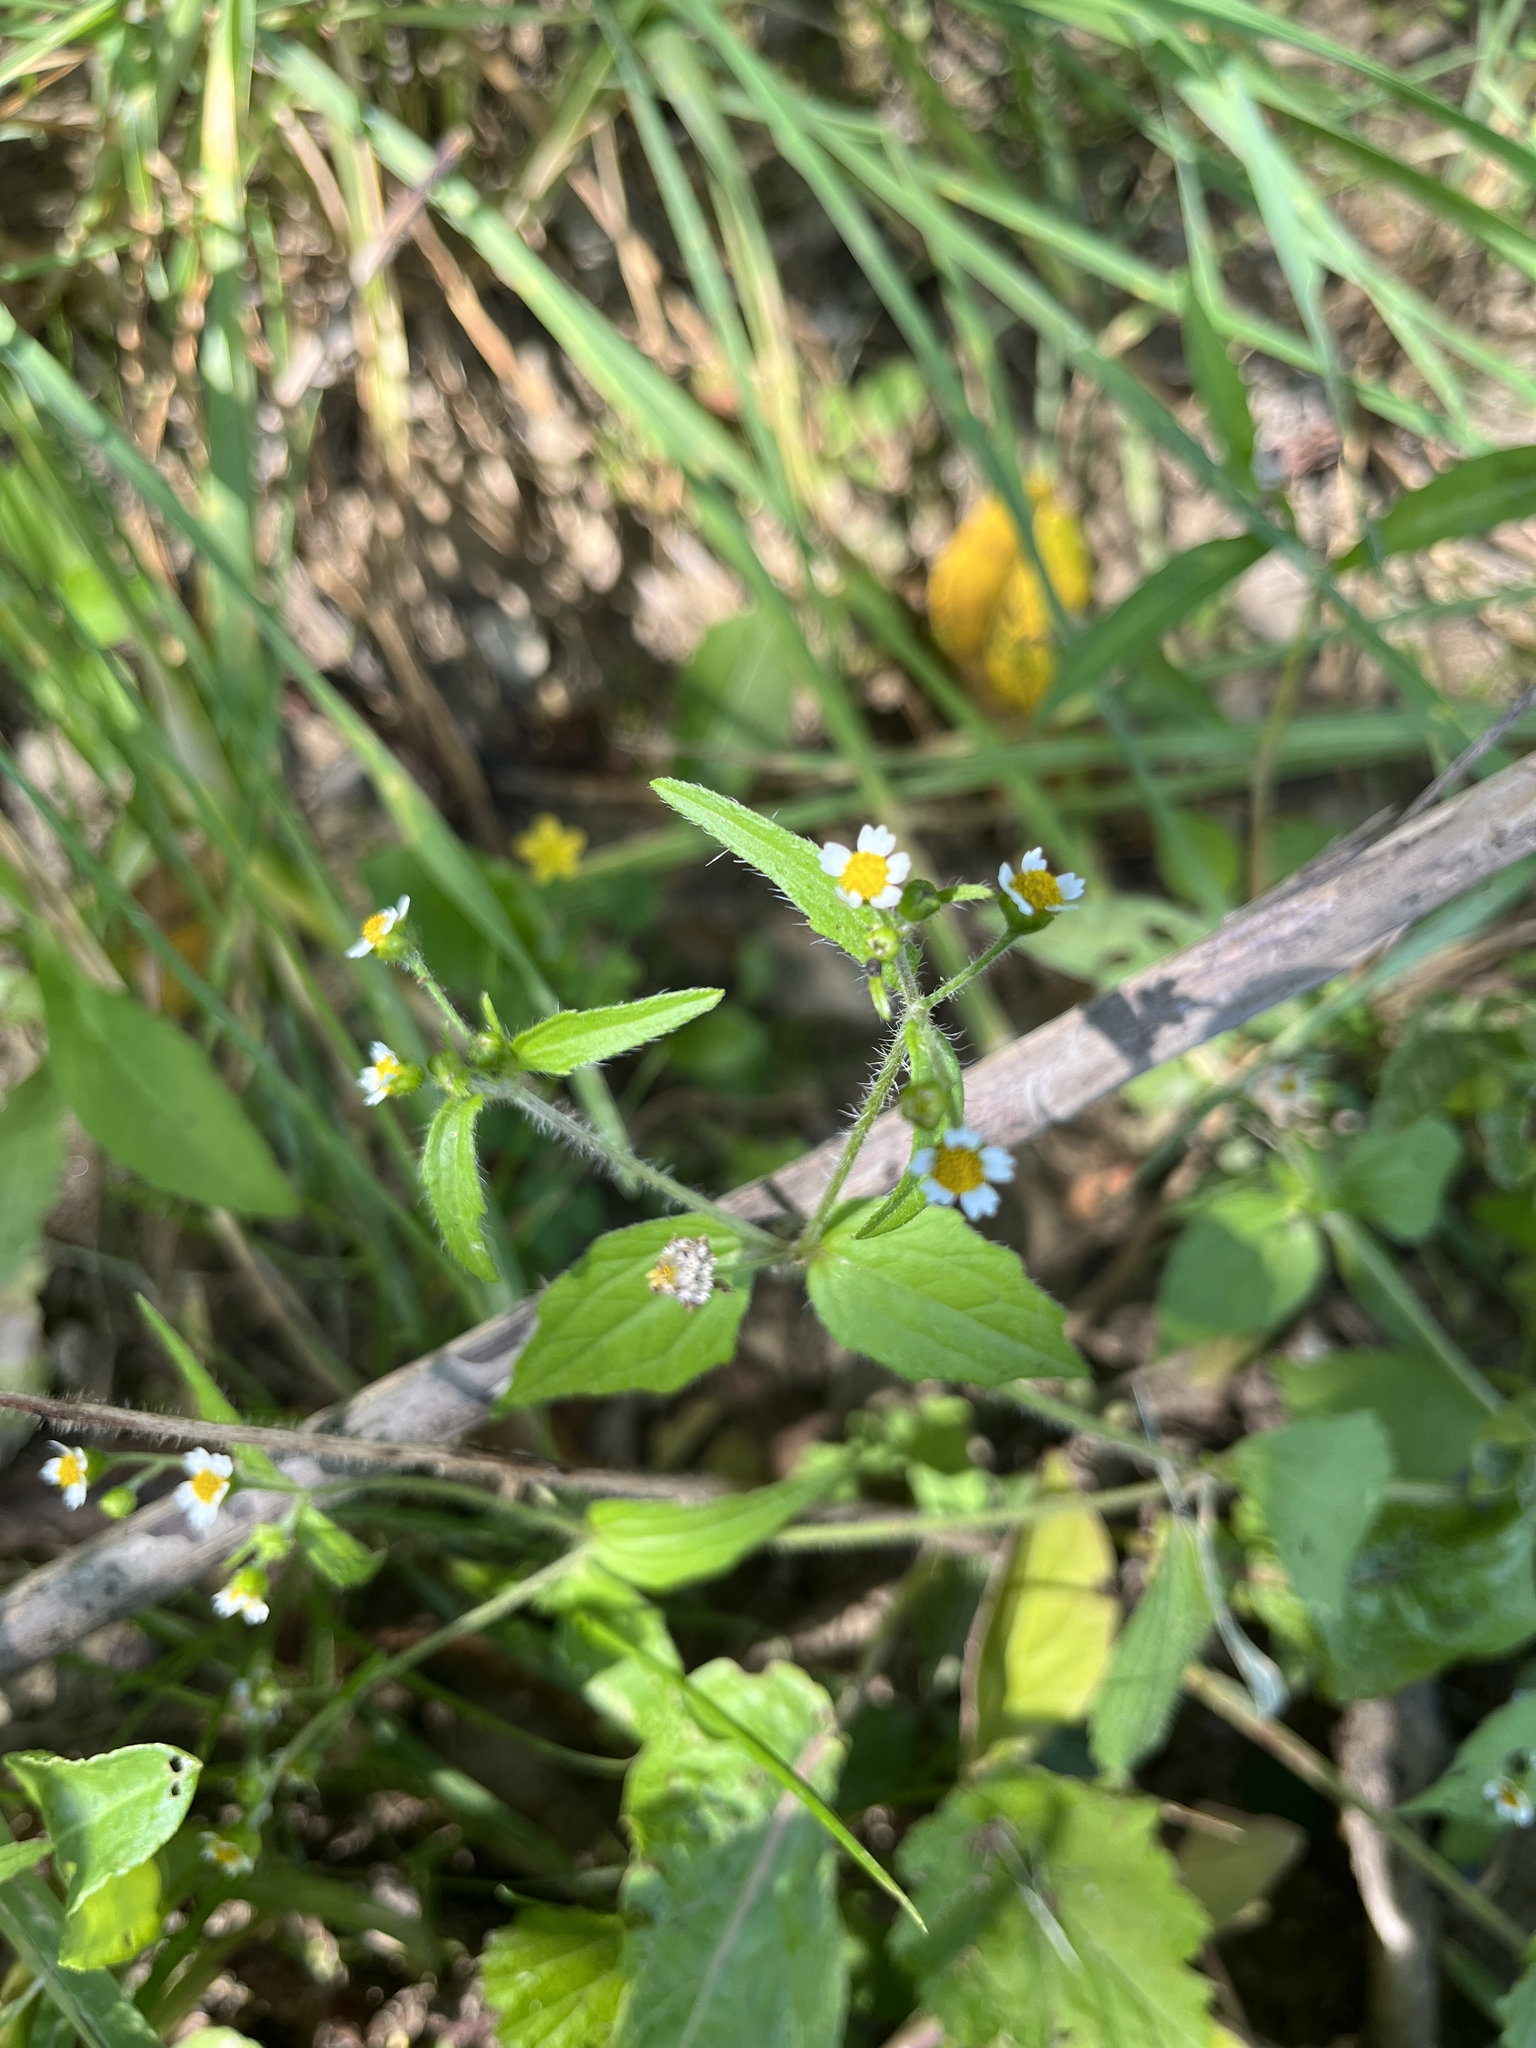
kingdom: Plantae
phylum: Tracheophyta
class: Magnoliopsida
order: Asterales
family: Asteraceae
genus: Galinsoga
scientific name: Galinsoga quadriradiata
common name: Shaggy soldier
